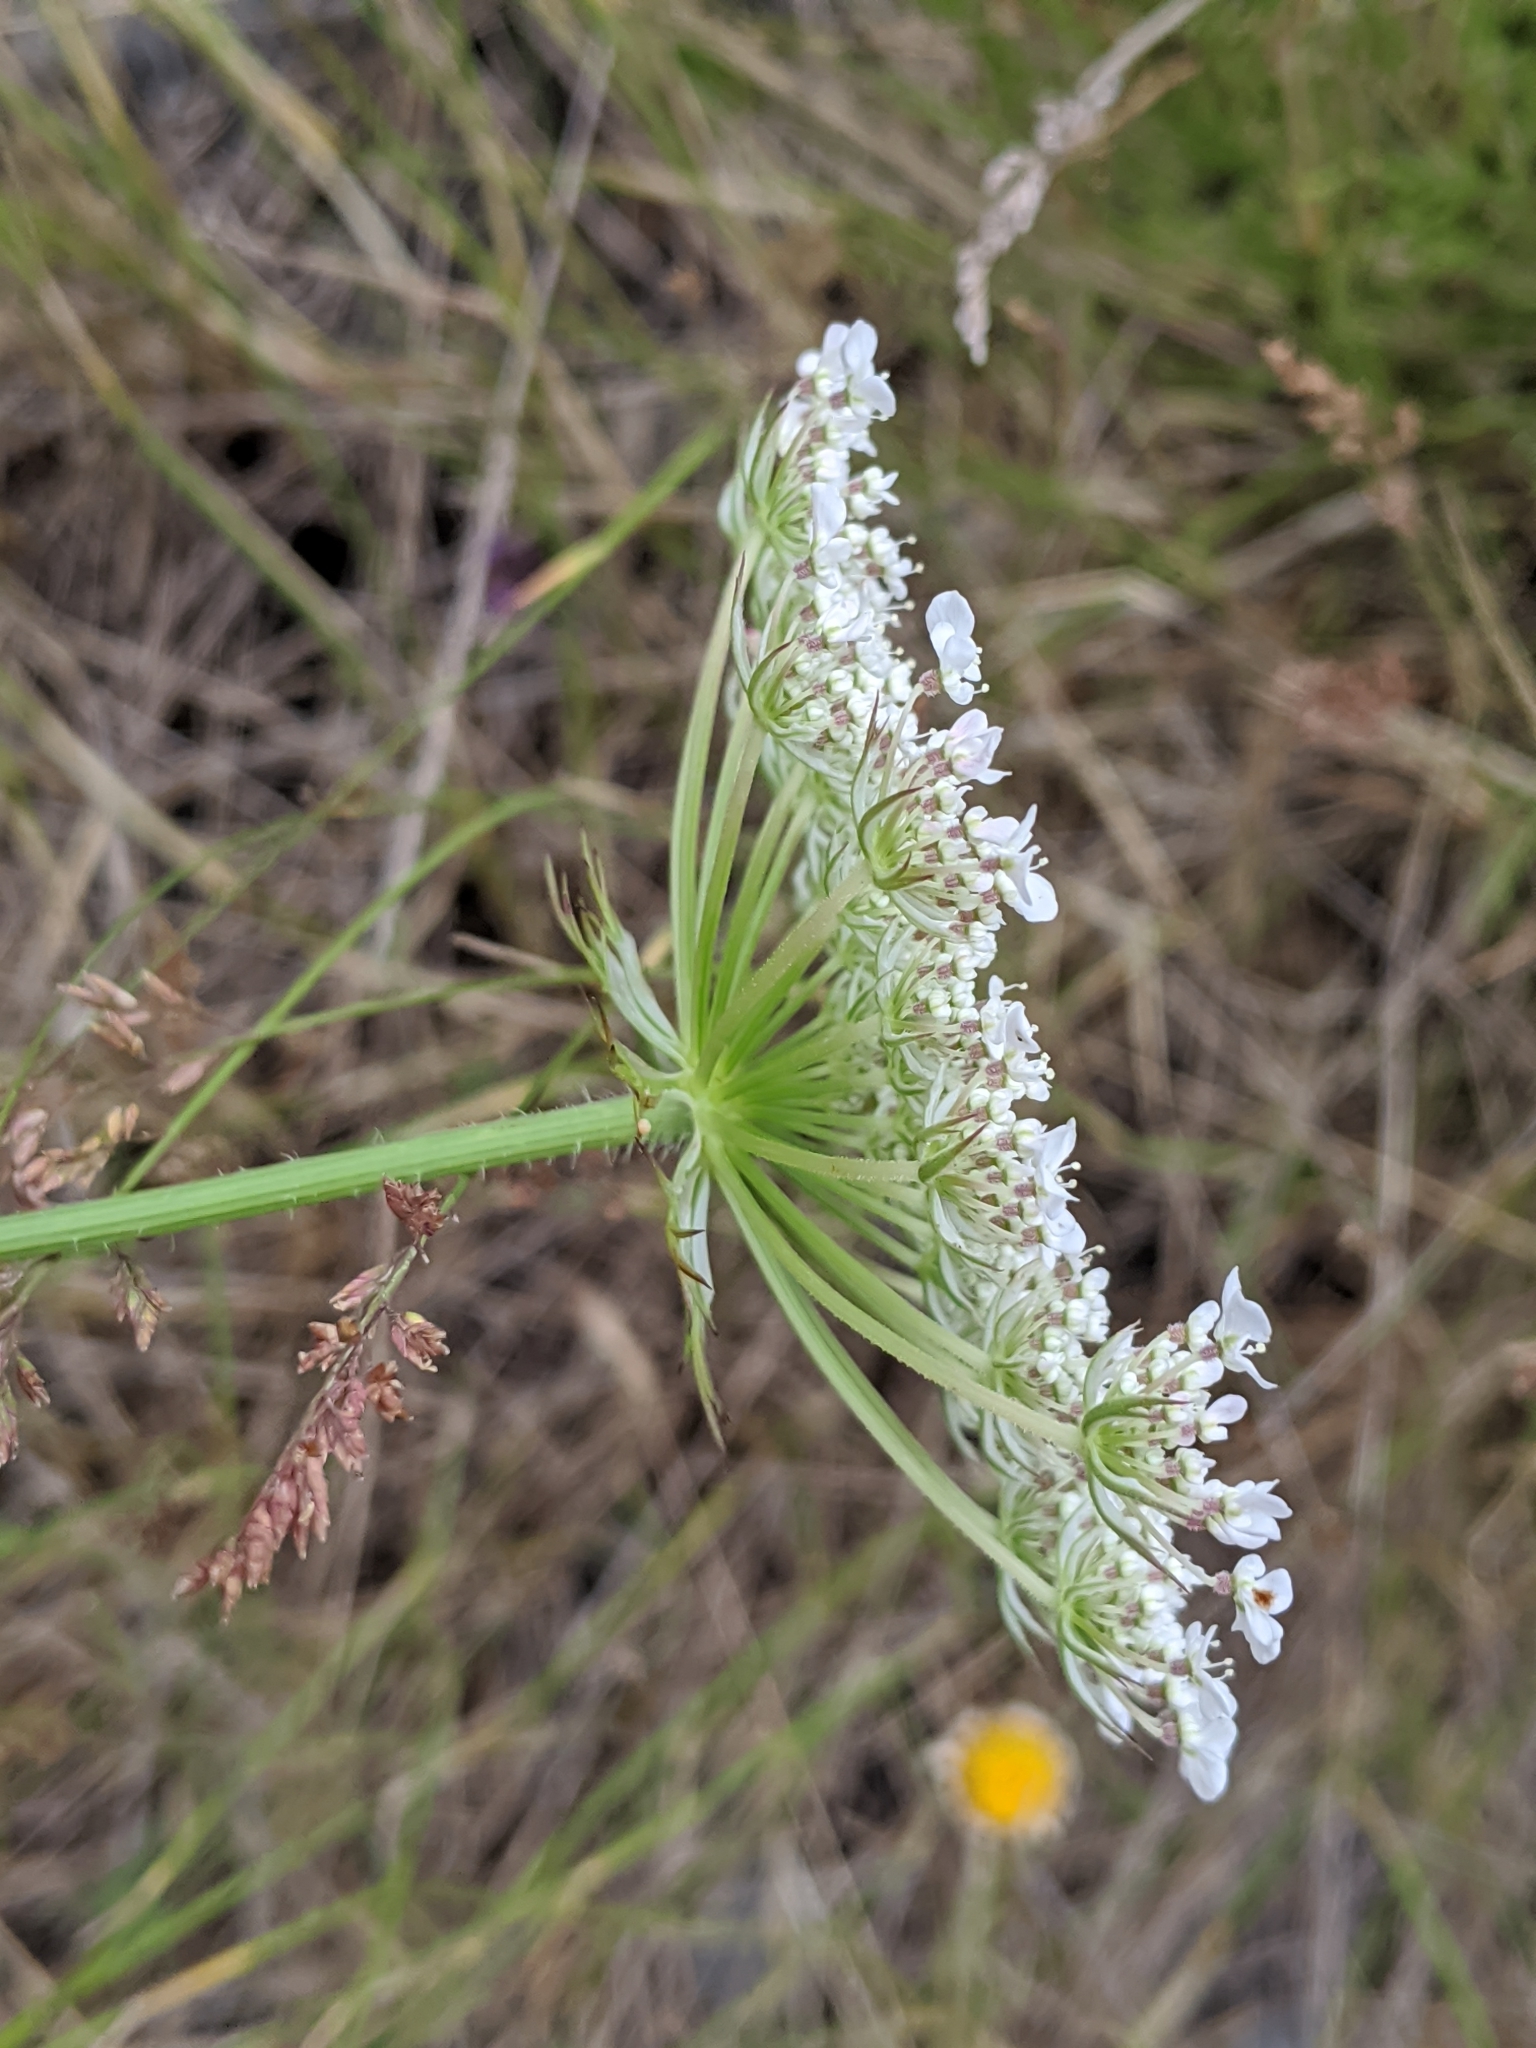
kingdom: Plantae
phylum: Tracheophyta
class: Magnoliopsida
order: Apiales
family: Apiaceae
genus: Daucus
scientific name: Daucus carota
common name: Wild carrot
